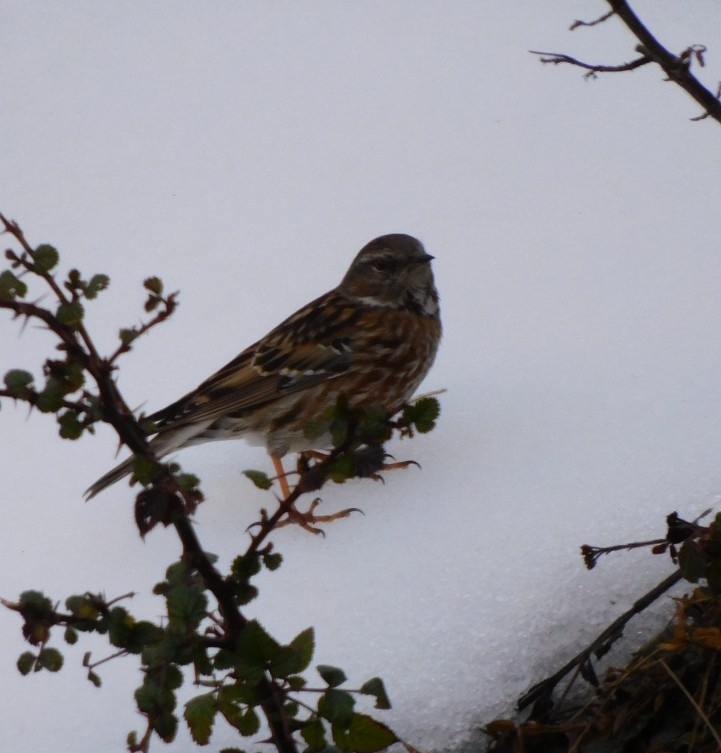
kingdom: Animalia
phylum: Chordata
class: Aves
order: Passeriformes
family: Prunellidae
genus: Prunella
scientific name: Prunella collaris
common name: Alpine accentor
